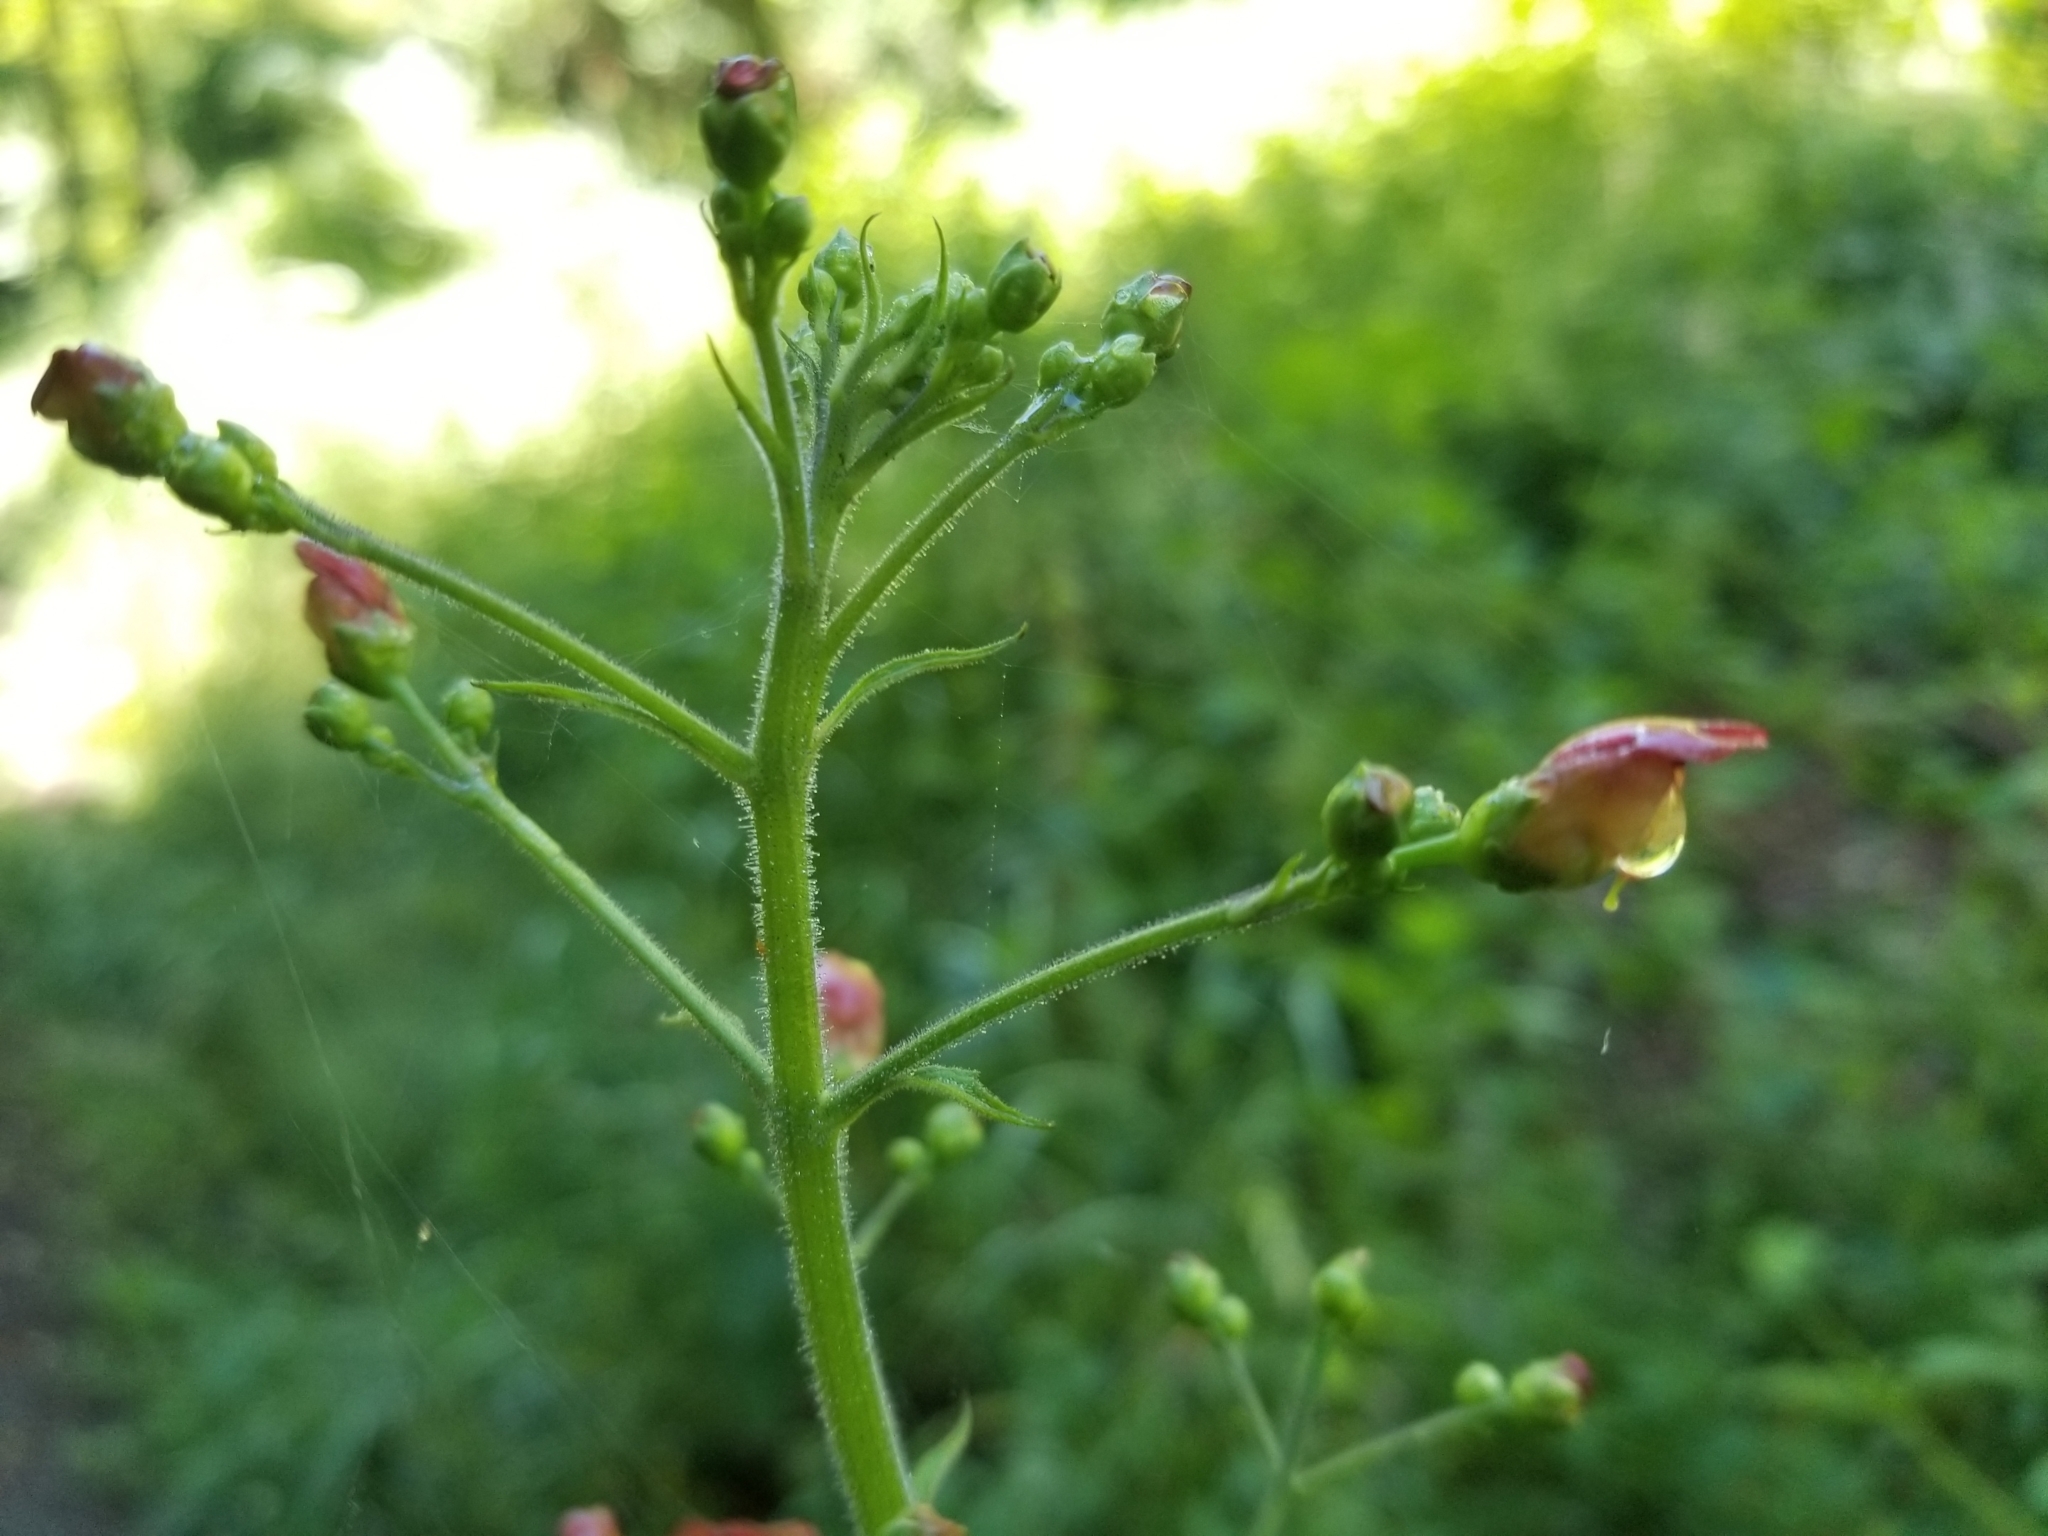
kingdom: Plantae
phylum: Tracheophyta
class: Magnoliopsida
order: Lamiales
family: Scrophulariaceae
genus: Scrophularia
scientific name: Scrophularia californica
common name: California figwort
